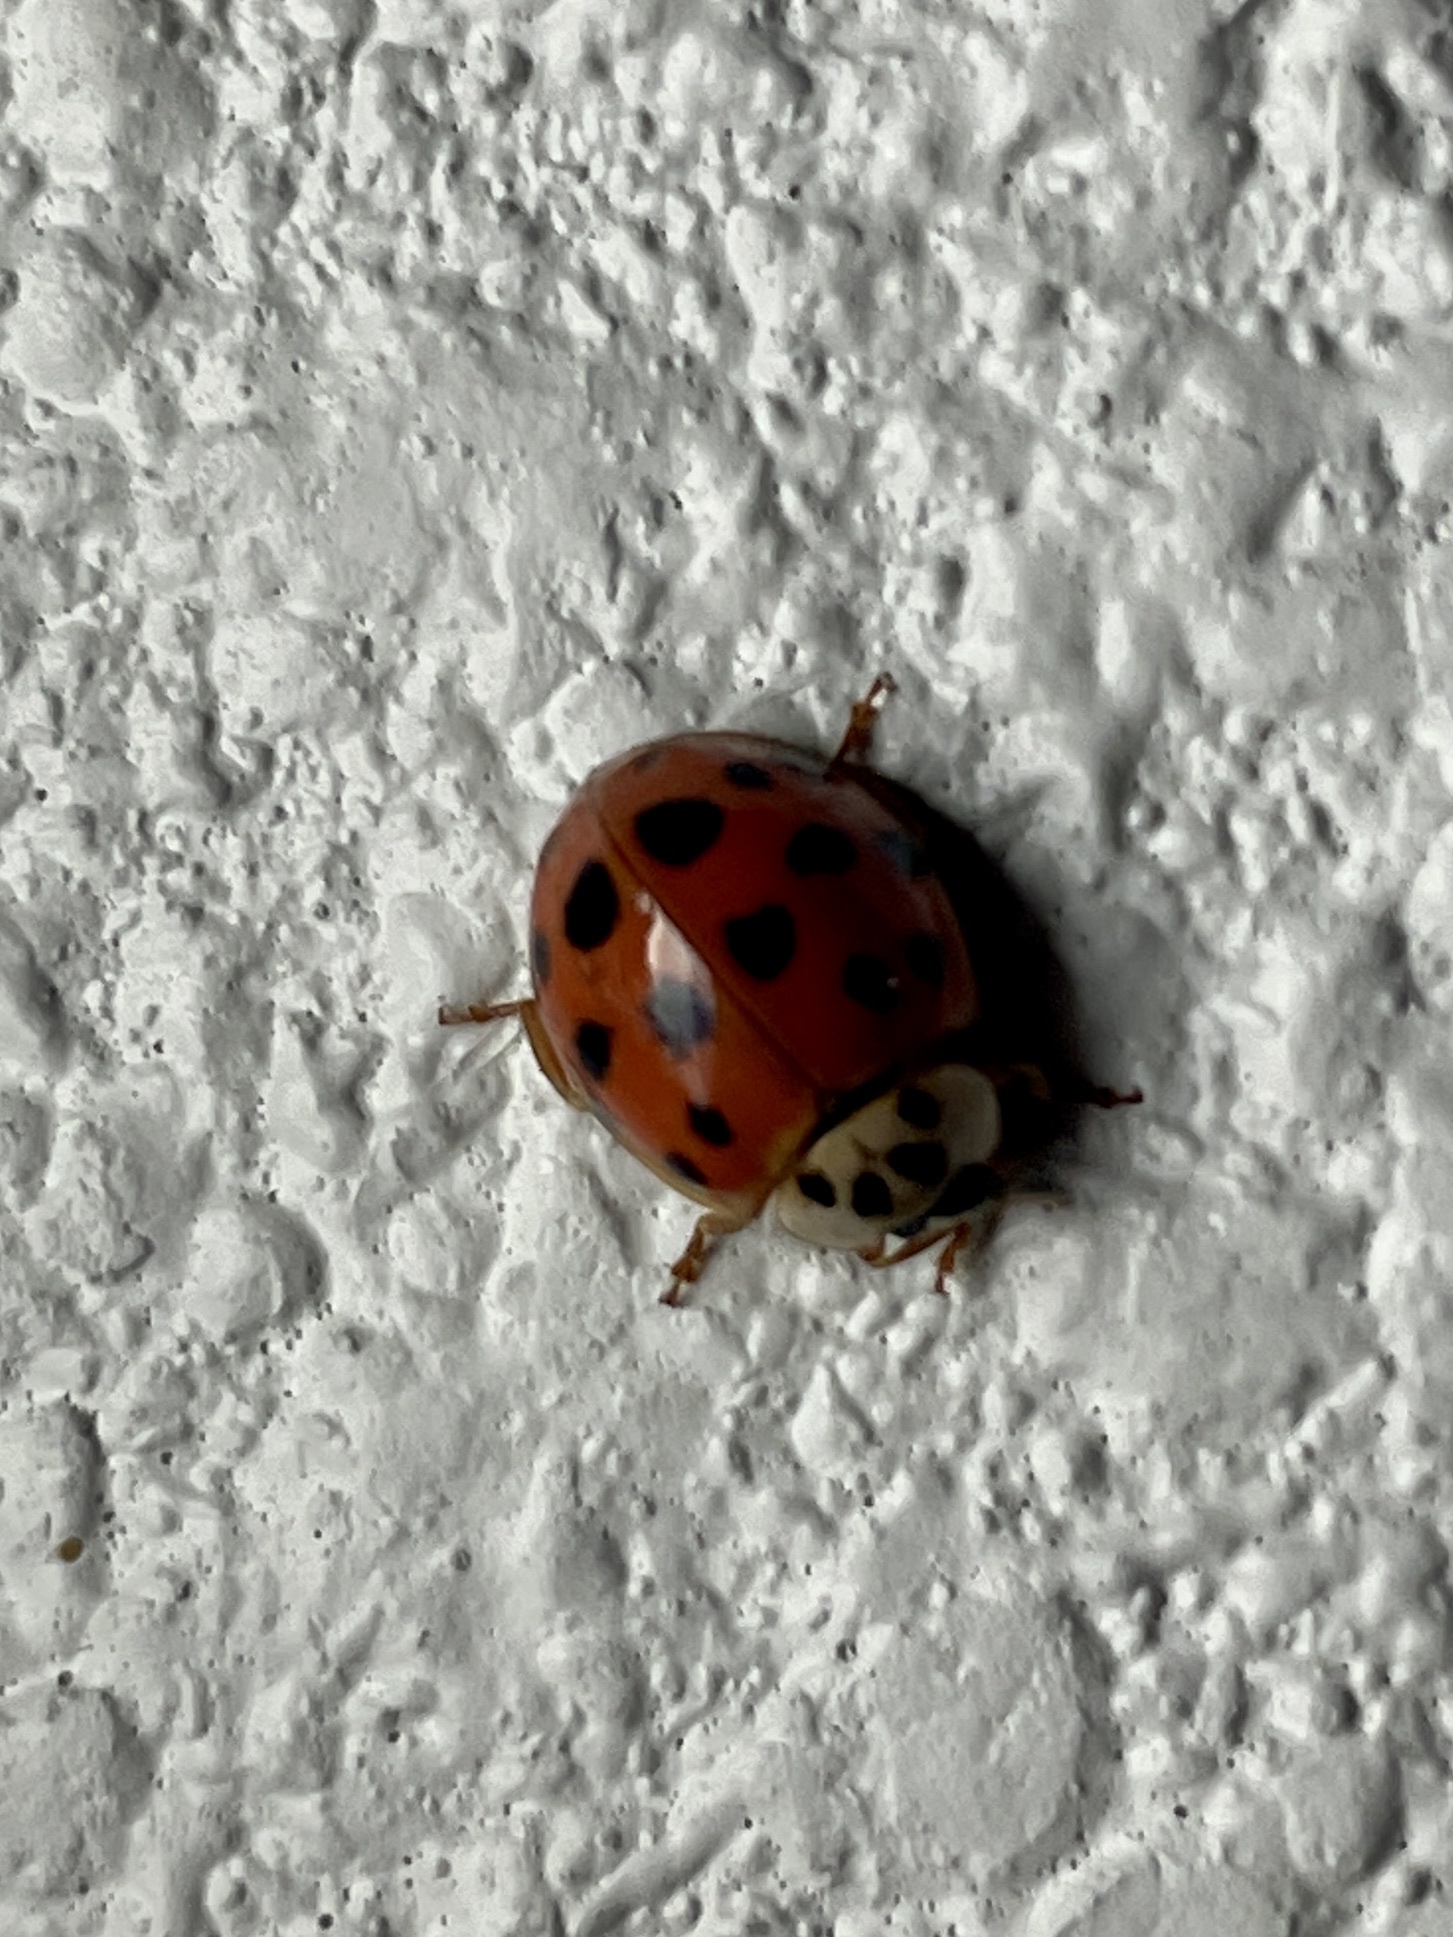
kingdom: Animalia
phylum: Arthropoda
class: Insecta
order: Coleoptera
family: Coccinellidae
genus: Harmonia
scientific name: Harmonia axyridis
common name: Harlequin ladybird
